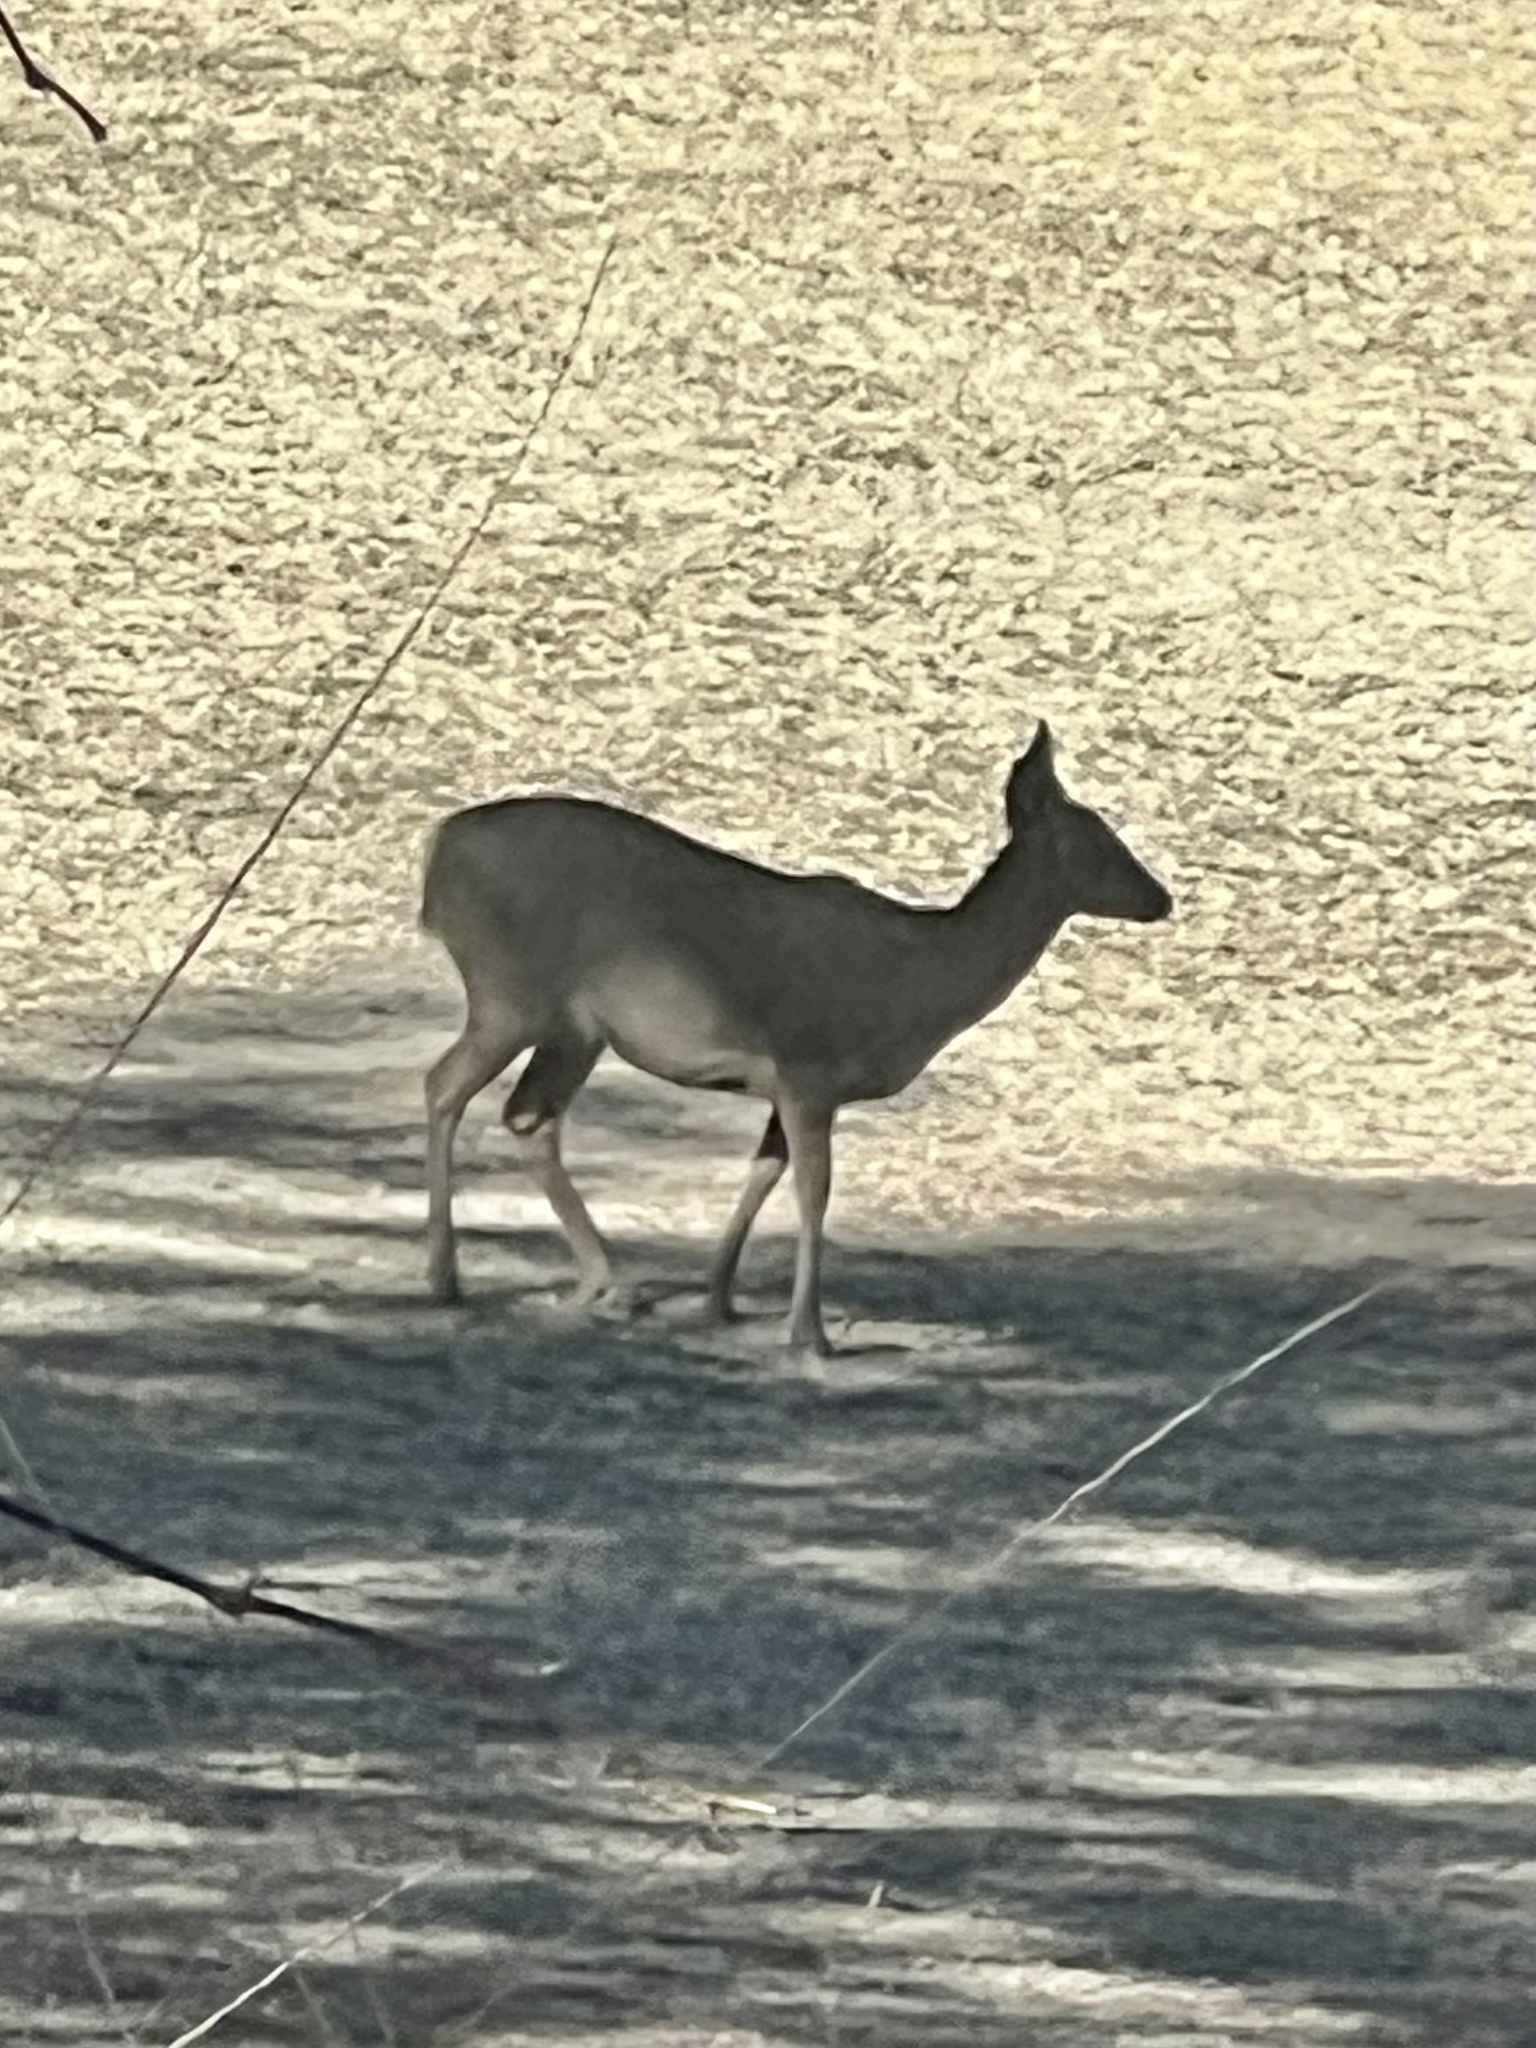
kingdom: Animalia
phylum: Chordata
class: Mammalia
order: Artiodactyla
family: Cervidae
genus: Odocoileus
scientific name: Odocoileus virginianus
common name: White-tailed deer
